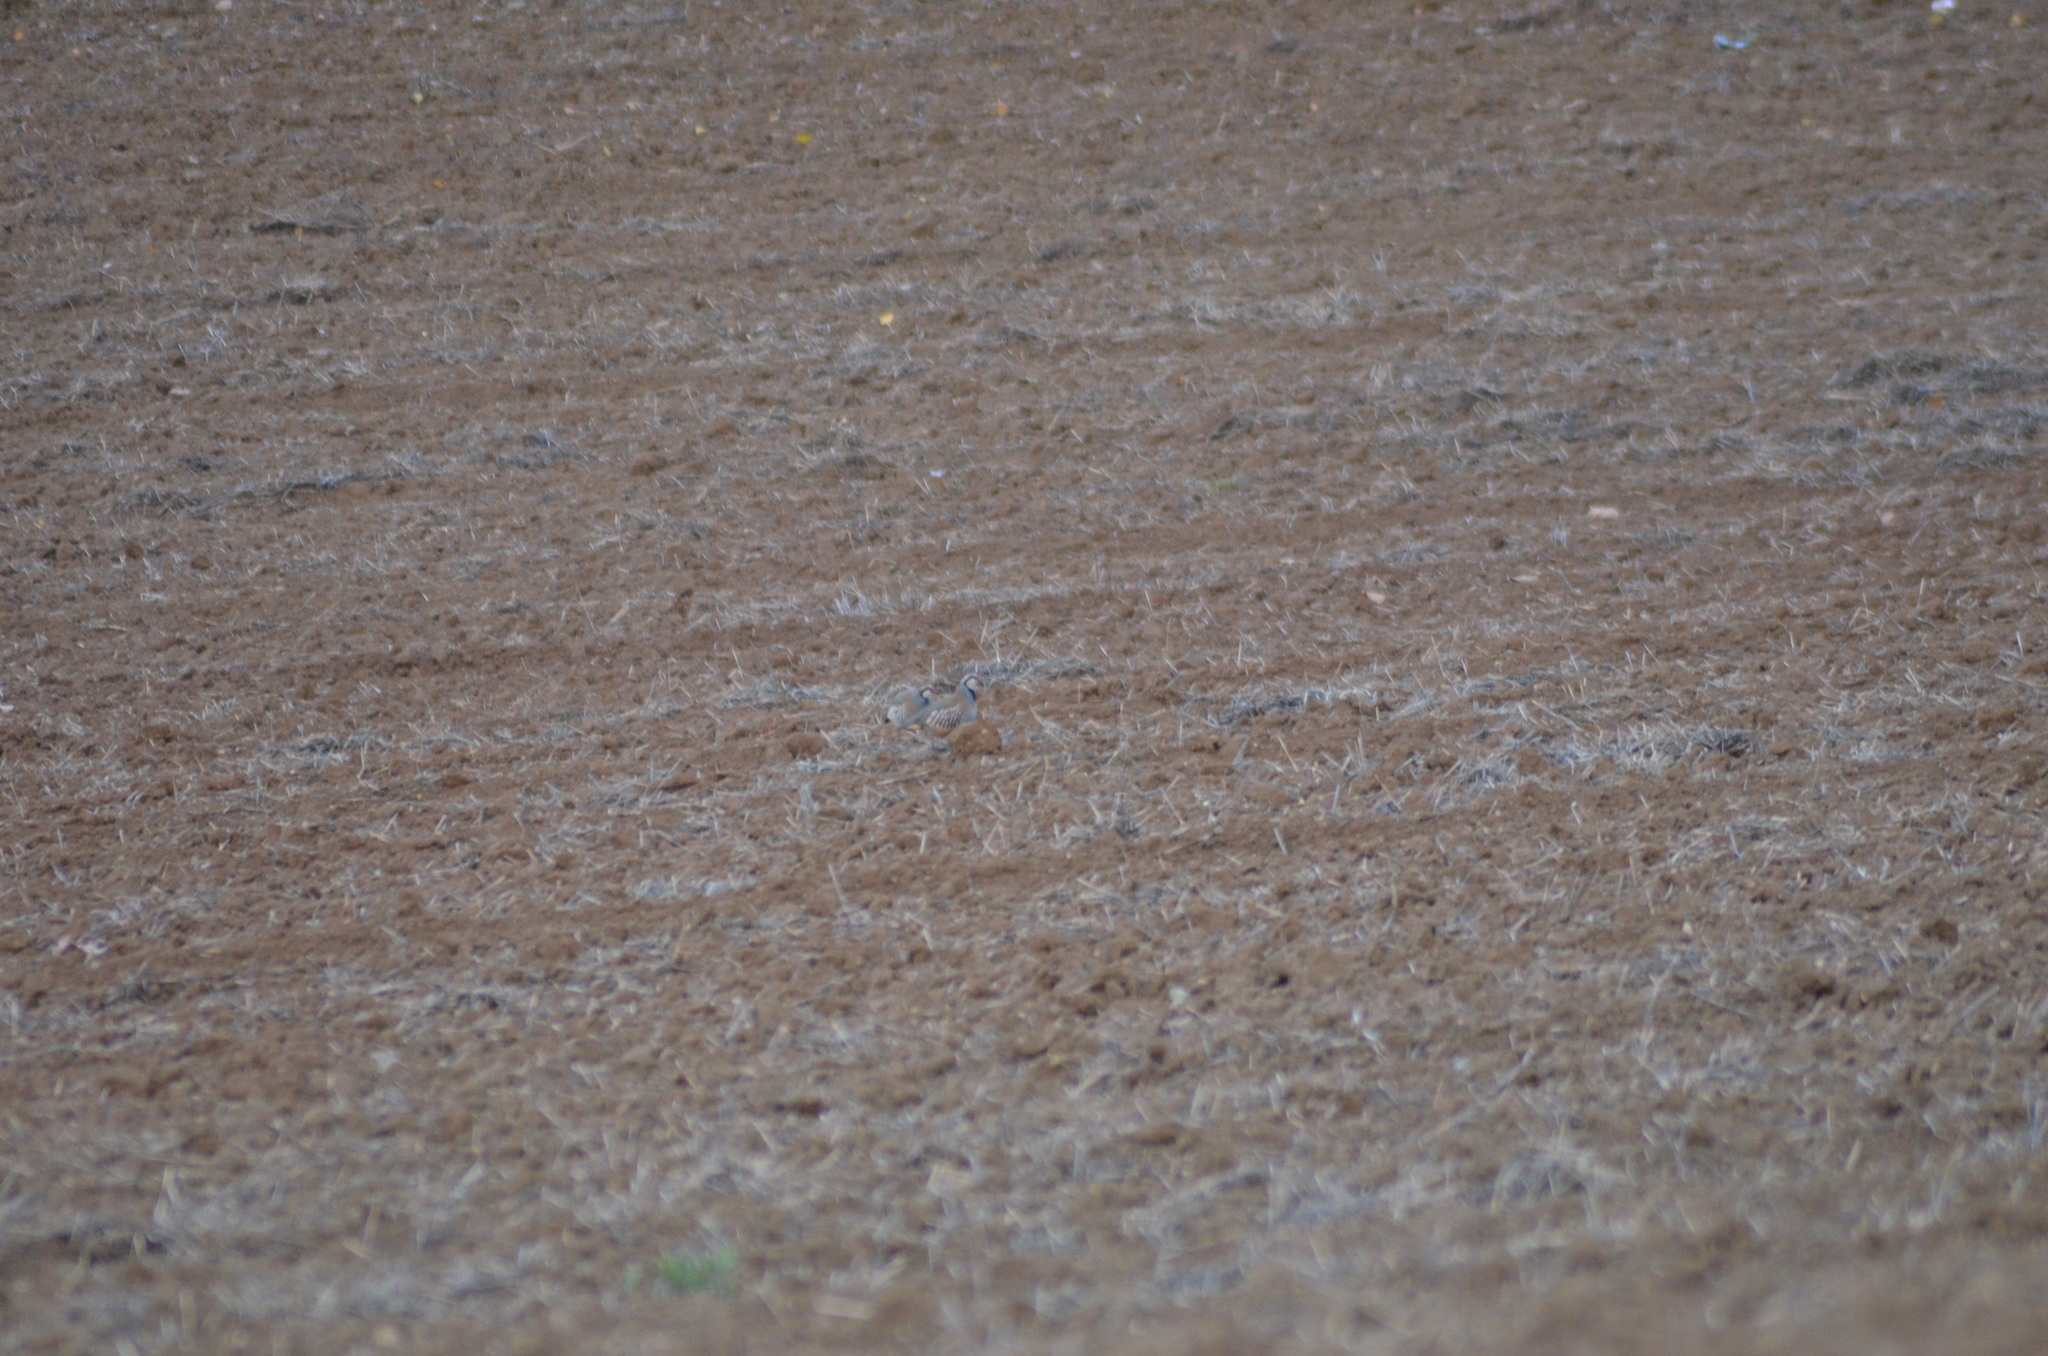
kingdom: Animalia
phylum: Chordata
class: Aves
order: Galliformes
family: Phasianidae
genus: Alectoris
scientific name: Alectoris rufa
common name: Red-legged partridge
